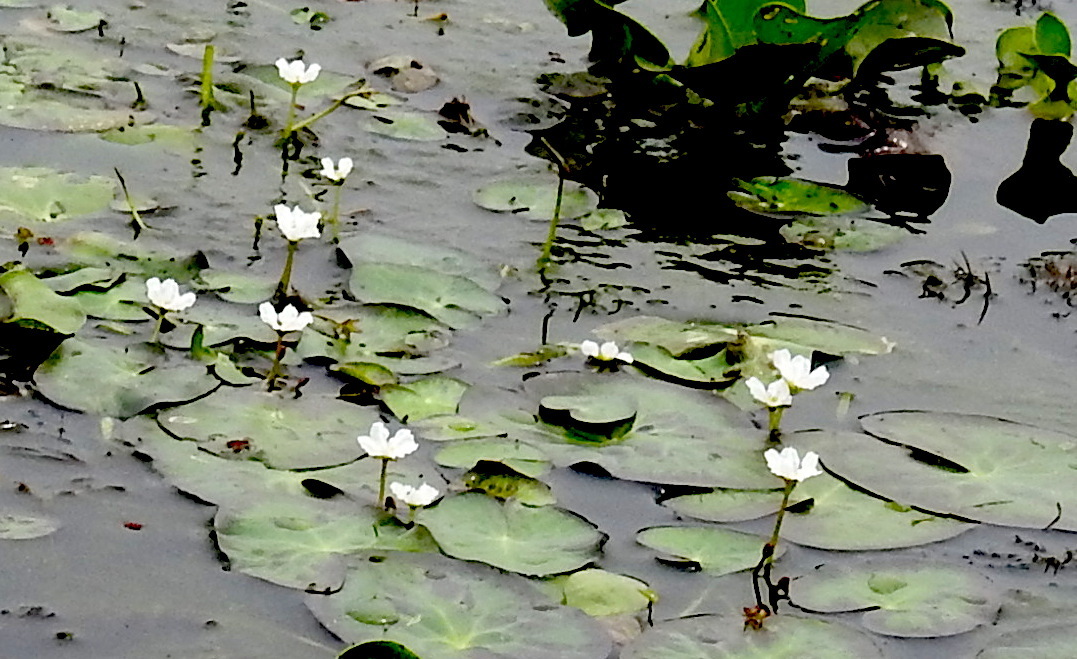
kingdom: Plantae
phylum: Tracheophyta
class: Magnoliopsida
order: Asterales
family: Menyanthaceae
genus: Nymphoides
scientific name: Nymphoides indica
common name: Water-snowflake
